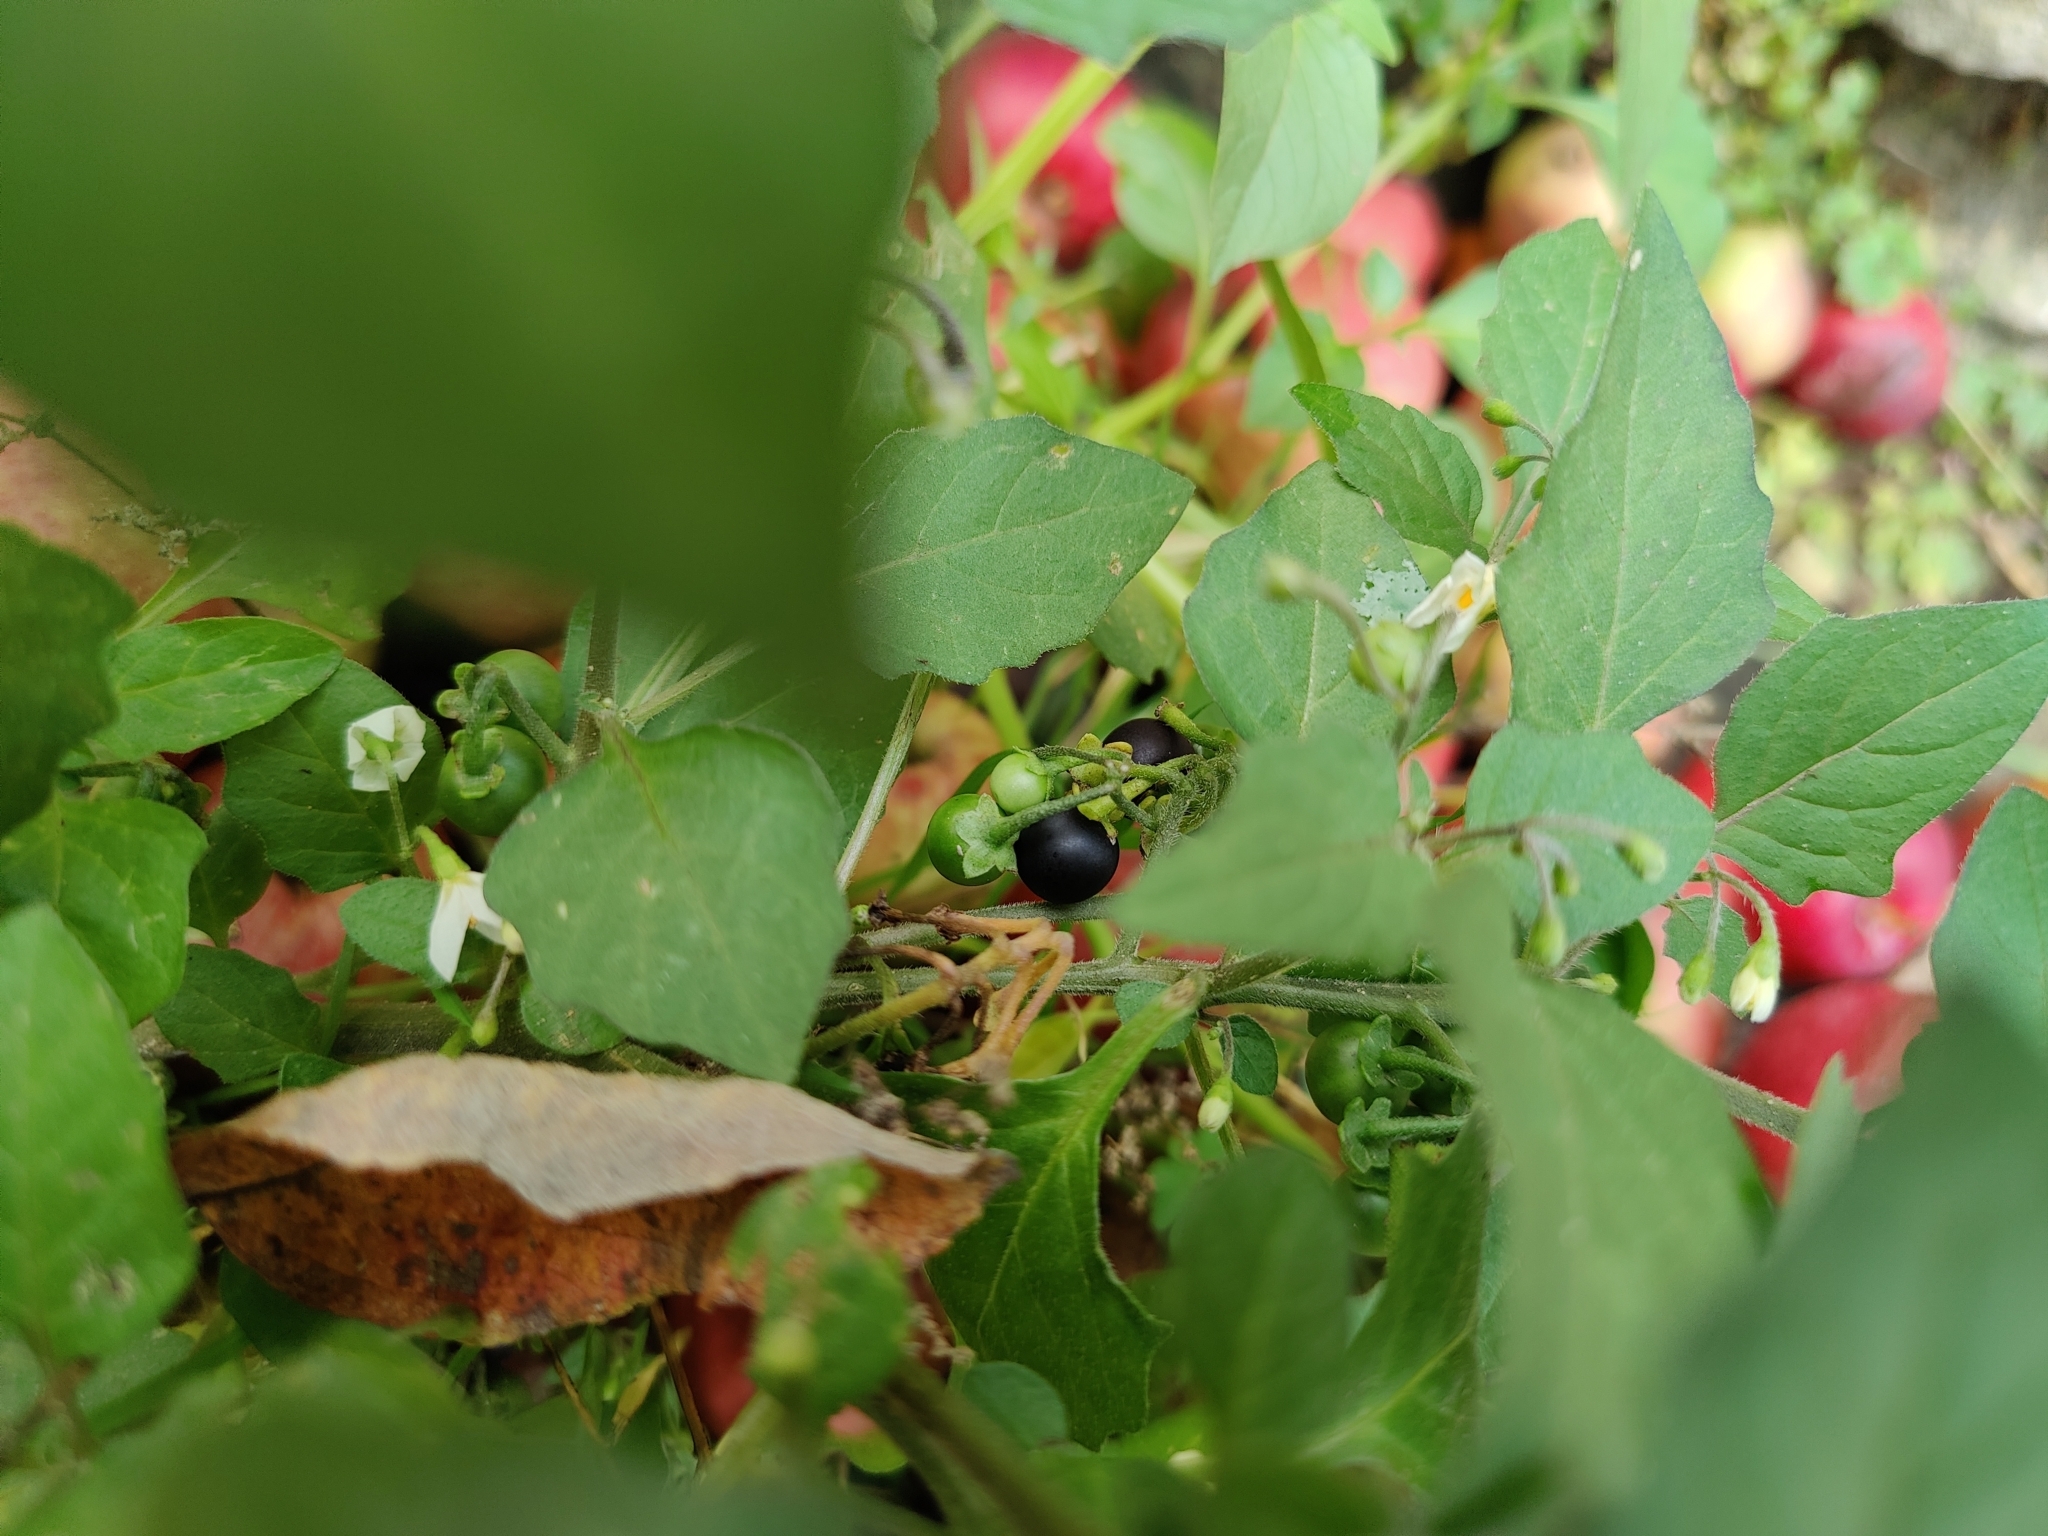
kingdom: Plantae
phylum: Tracheophyta
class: Magnoliopsida
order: Solanales
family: Solanaceae
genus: Solanum
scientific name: Solanum nigrum
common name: Black nightshade
